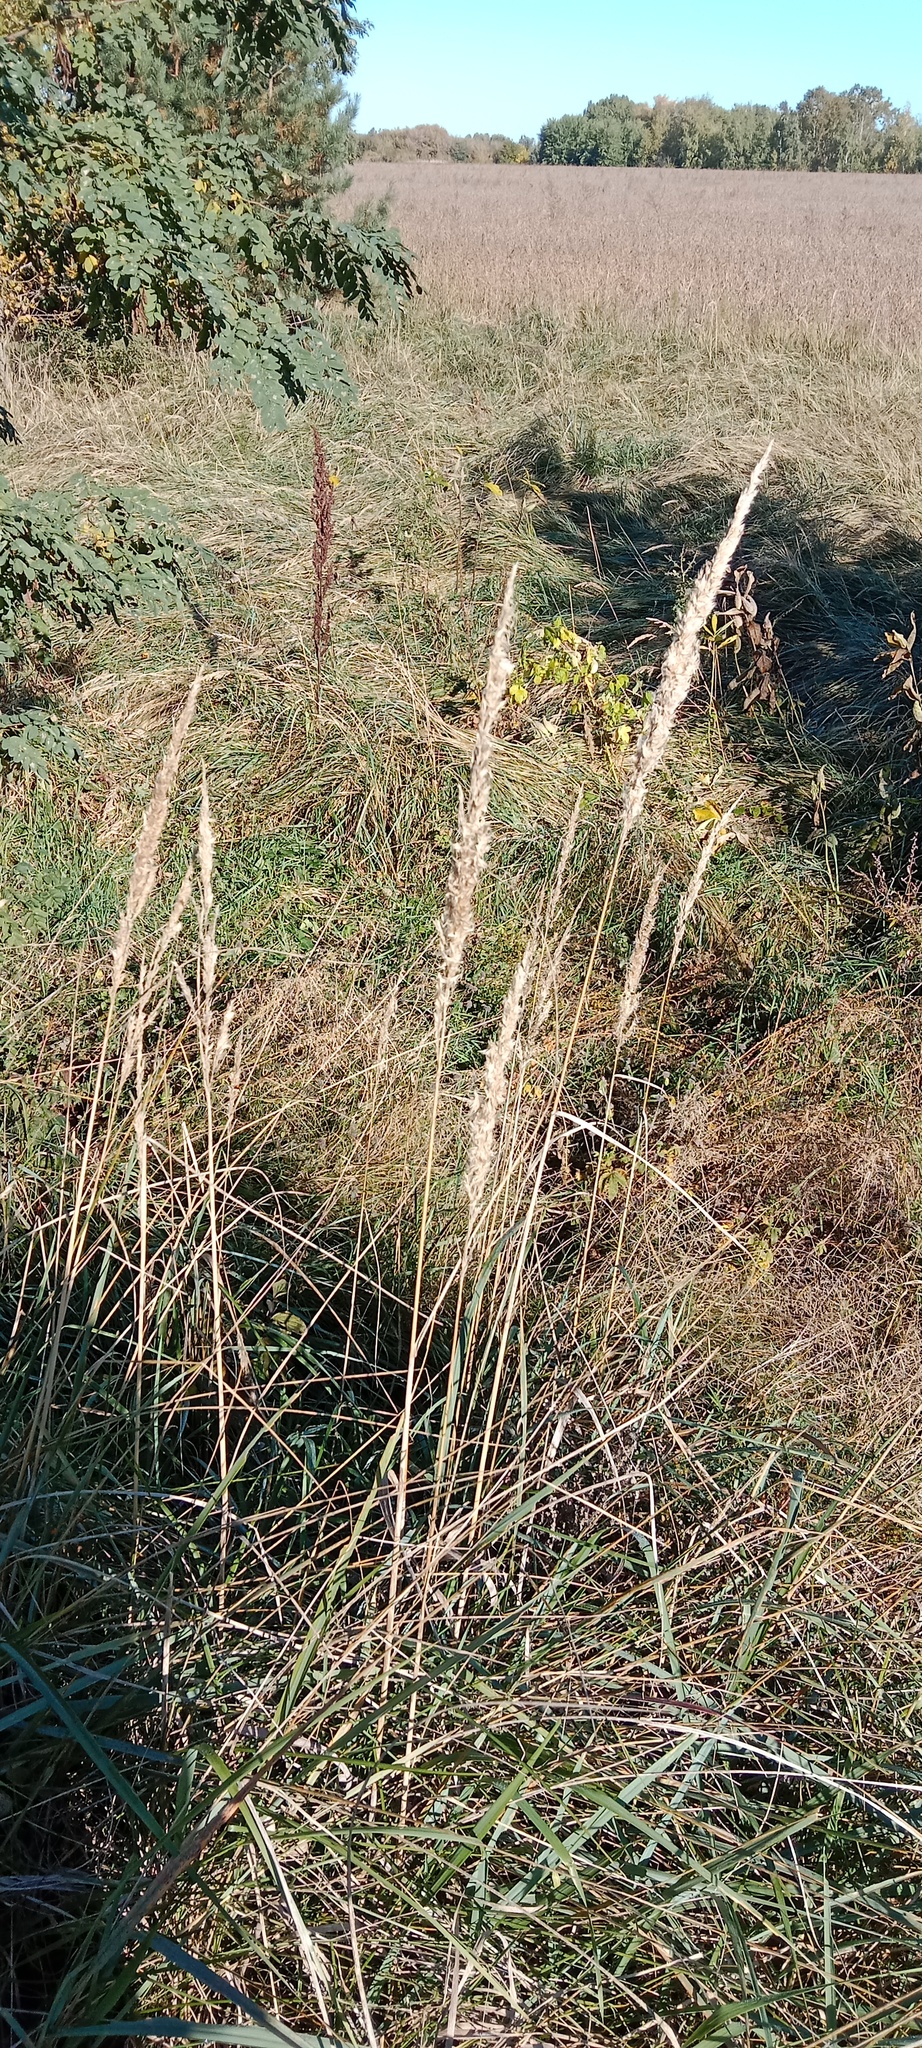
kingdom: Plantae
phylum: Tracheophyta
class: Liliopsida
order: Poales
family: Poaceae
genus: Calamagrostis
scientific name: Calamagrostis epigejos
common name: Wood small-reed
